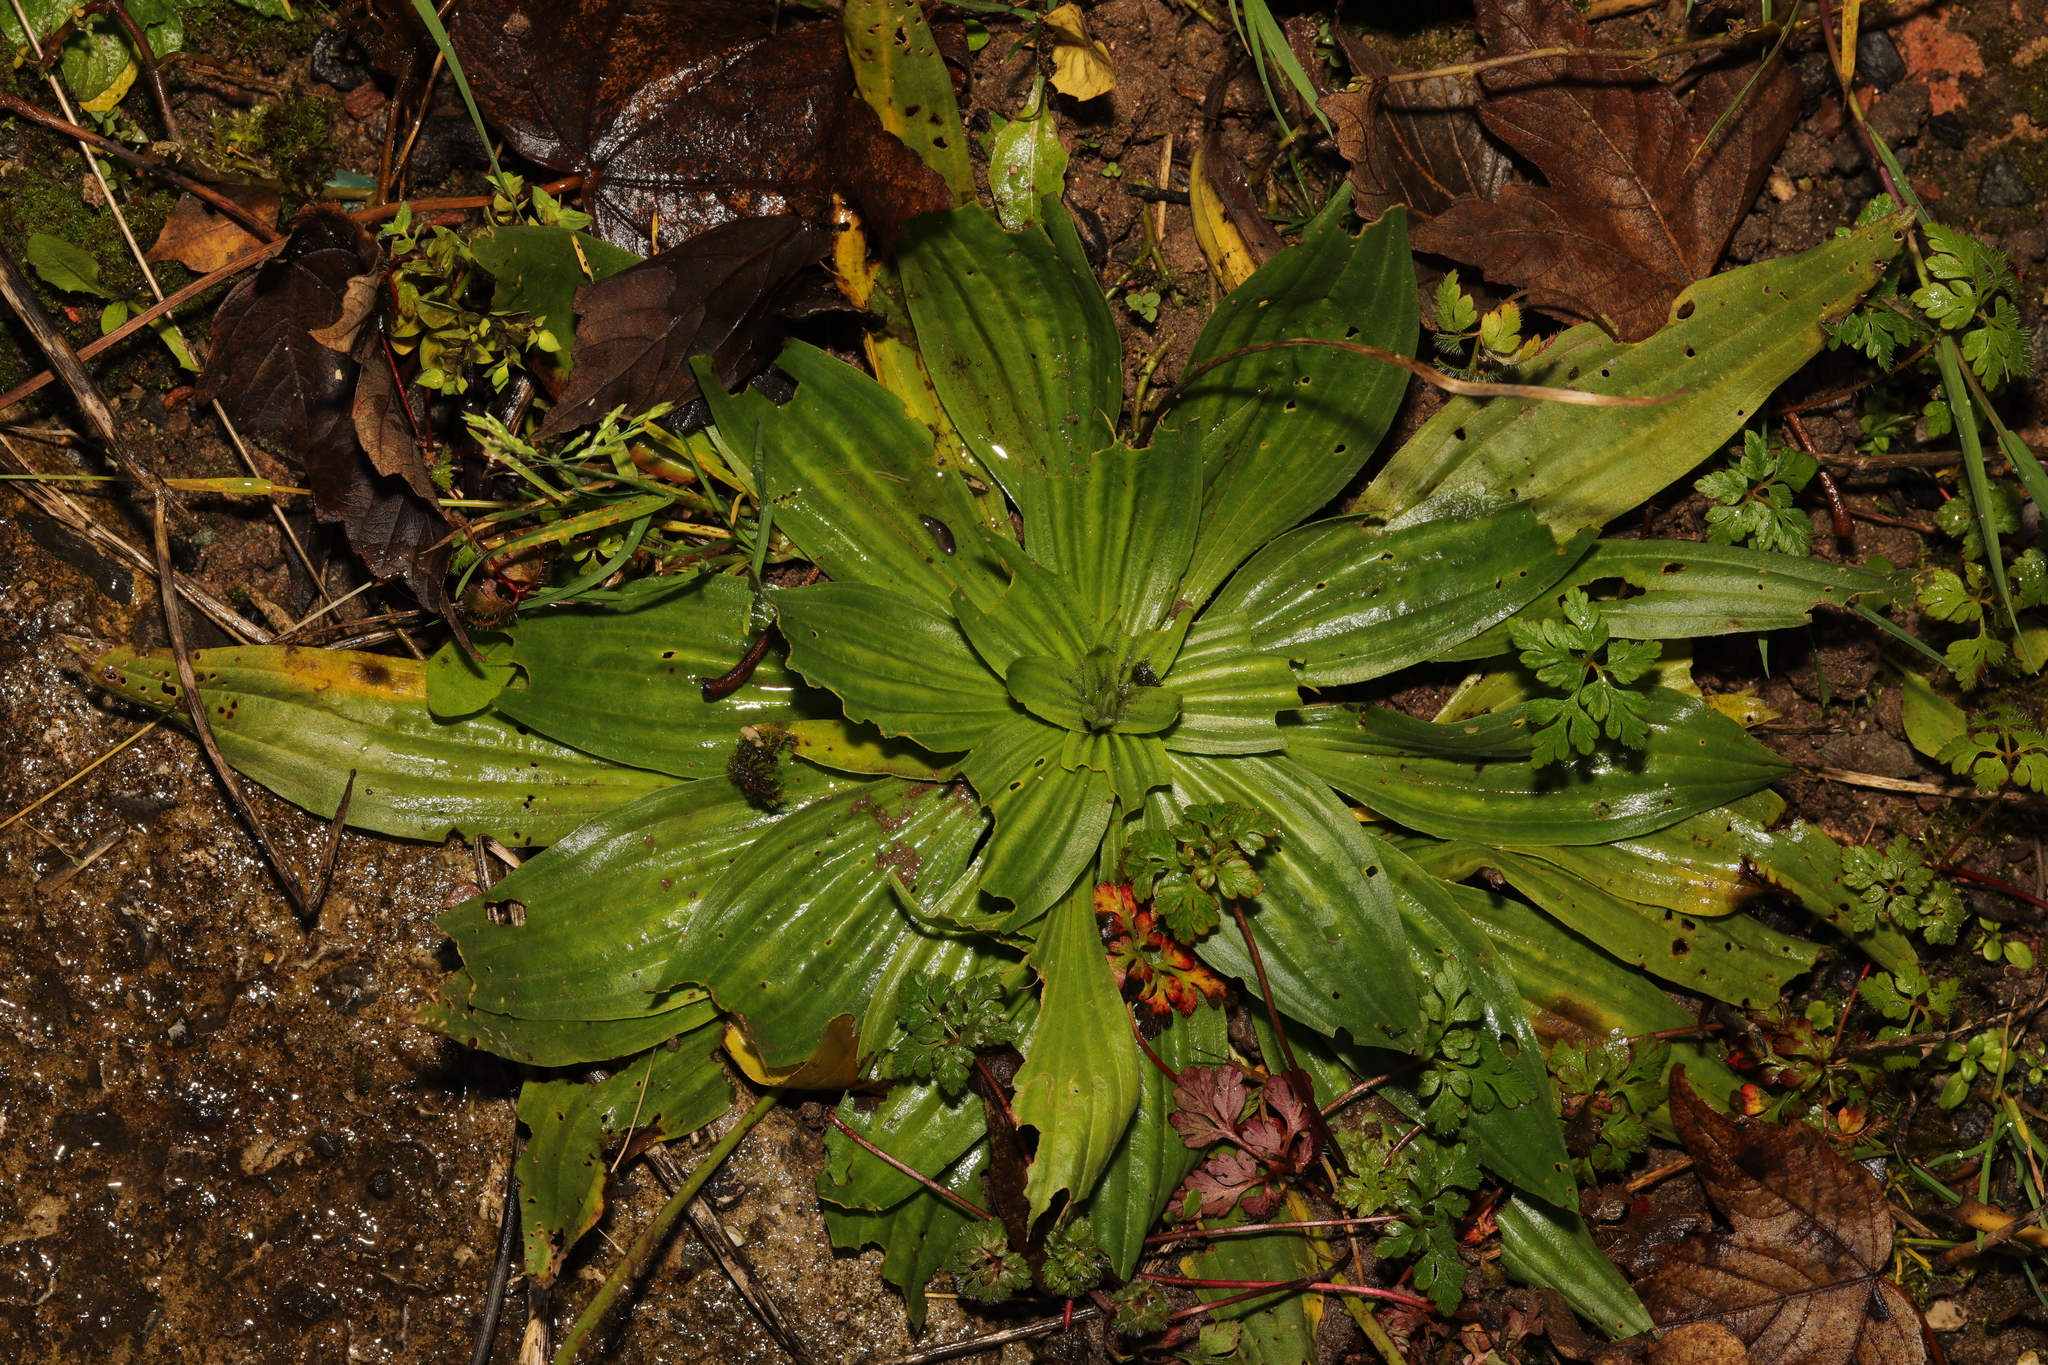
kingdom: Plantae
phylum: Tracheophyta
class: Magnoliopsida
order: Lamiales
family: Plantaginaceae
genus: Plantago
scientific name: Plantago media
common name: Hoary plantain
